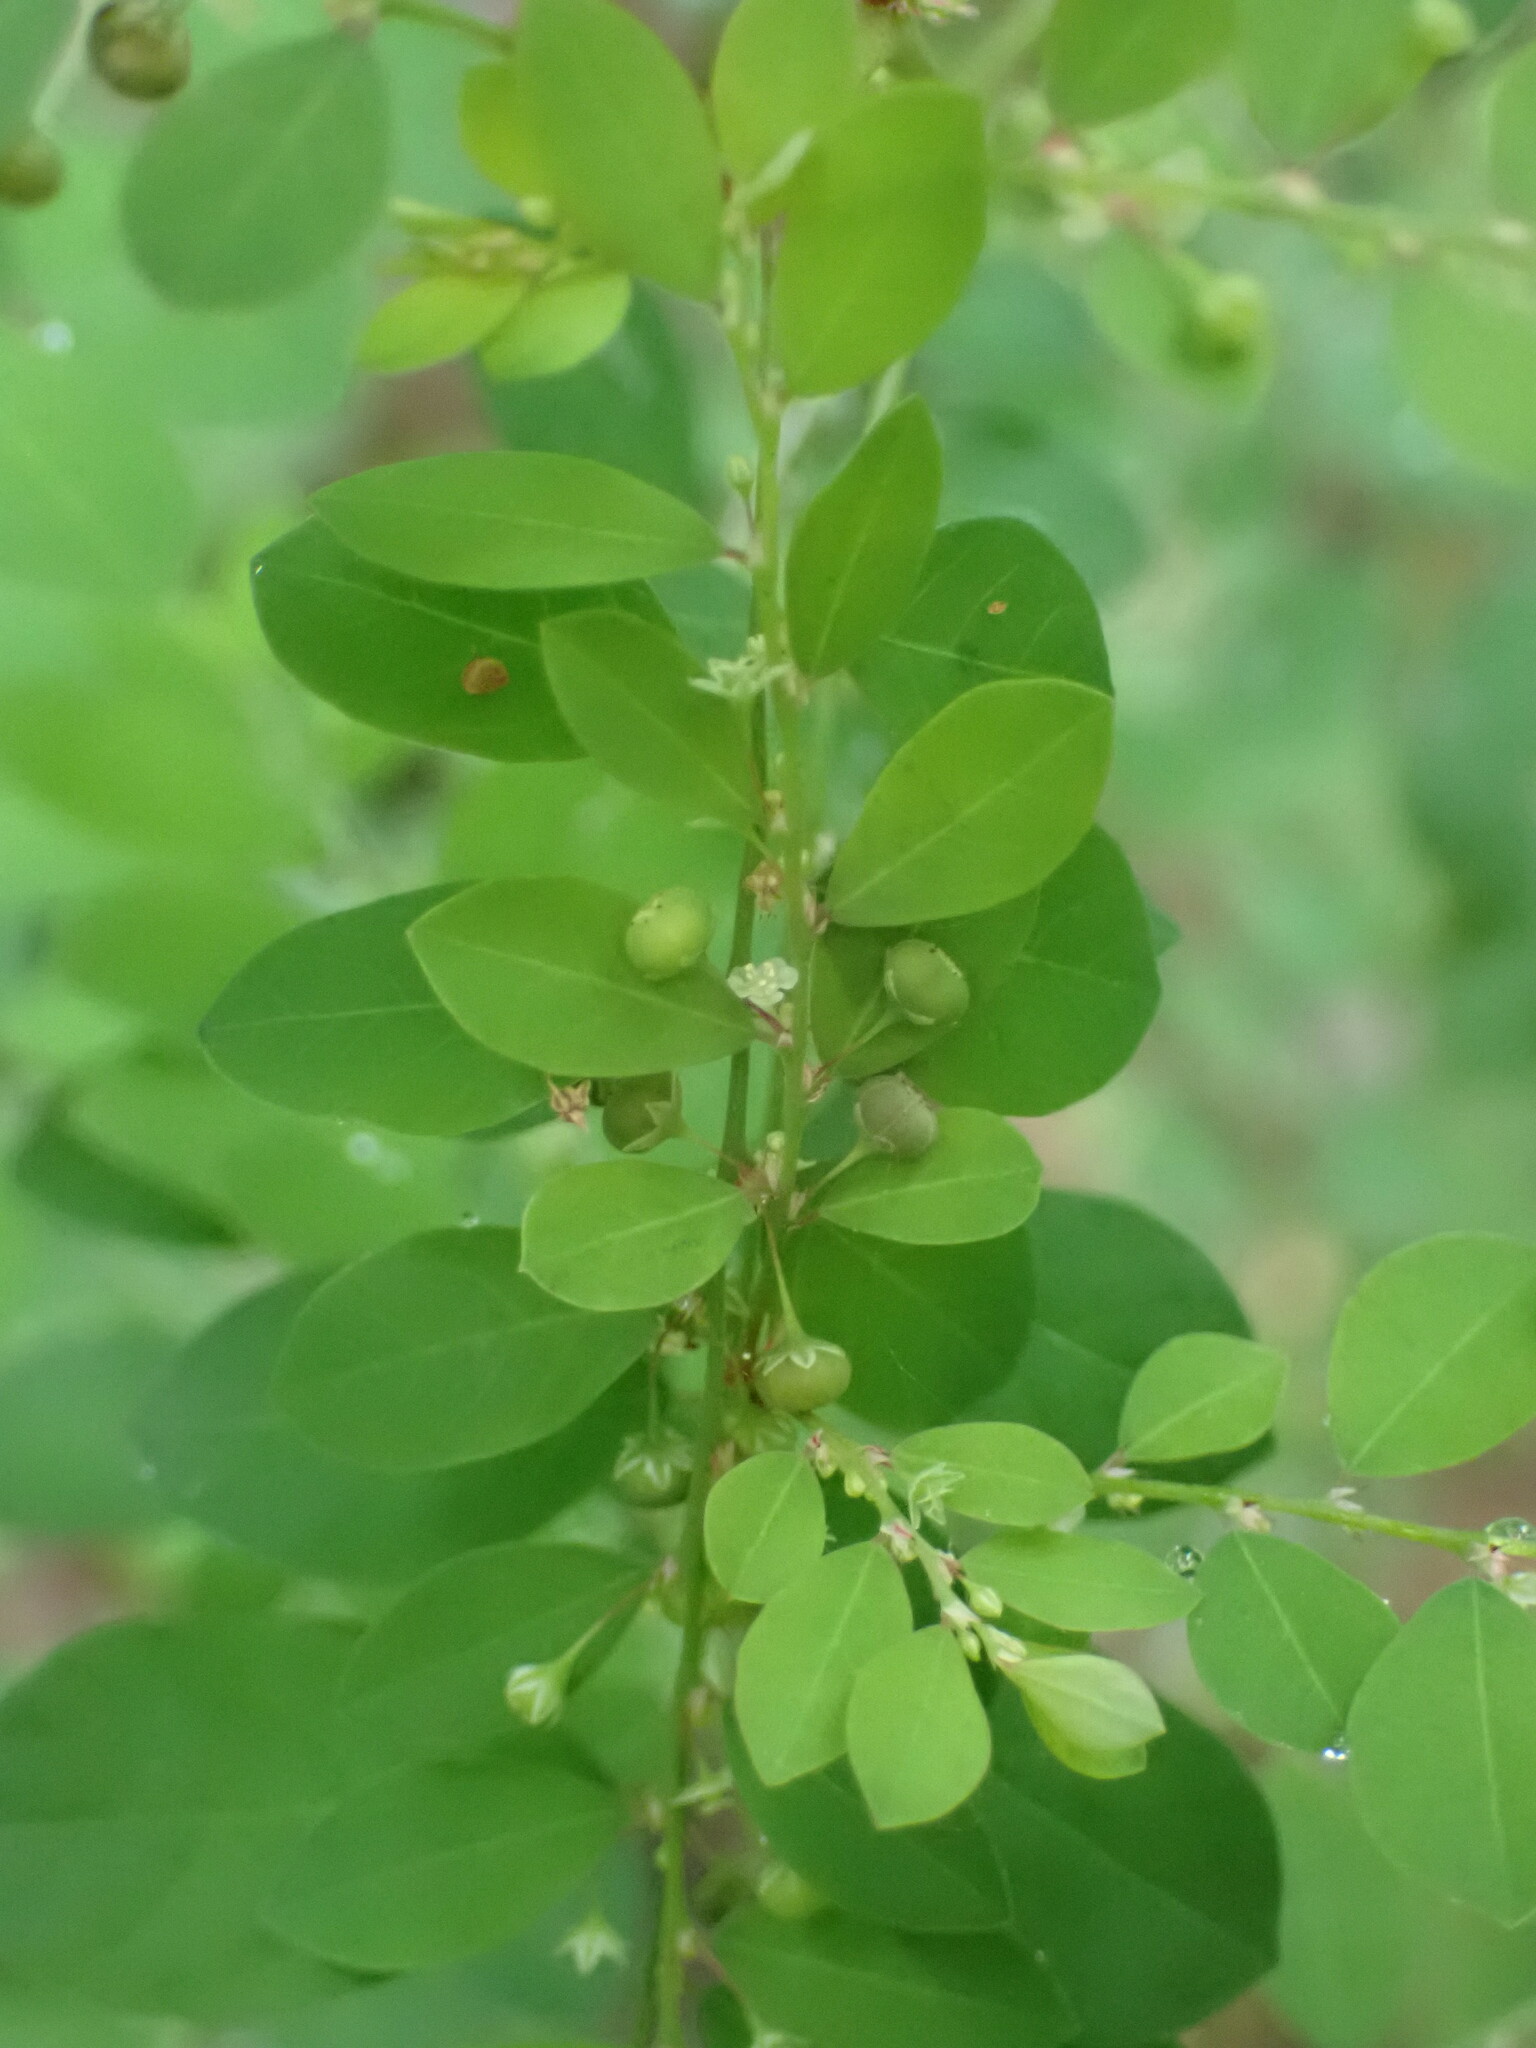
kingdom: Plantae
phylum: Tracheophyta
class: Magnoliopsida
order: Malpighiales
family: Phyllanthaceae
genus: Phyllanthus
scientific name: Phyllanthus tenellus
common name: Mascarene island leaf-flower
